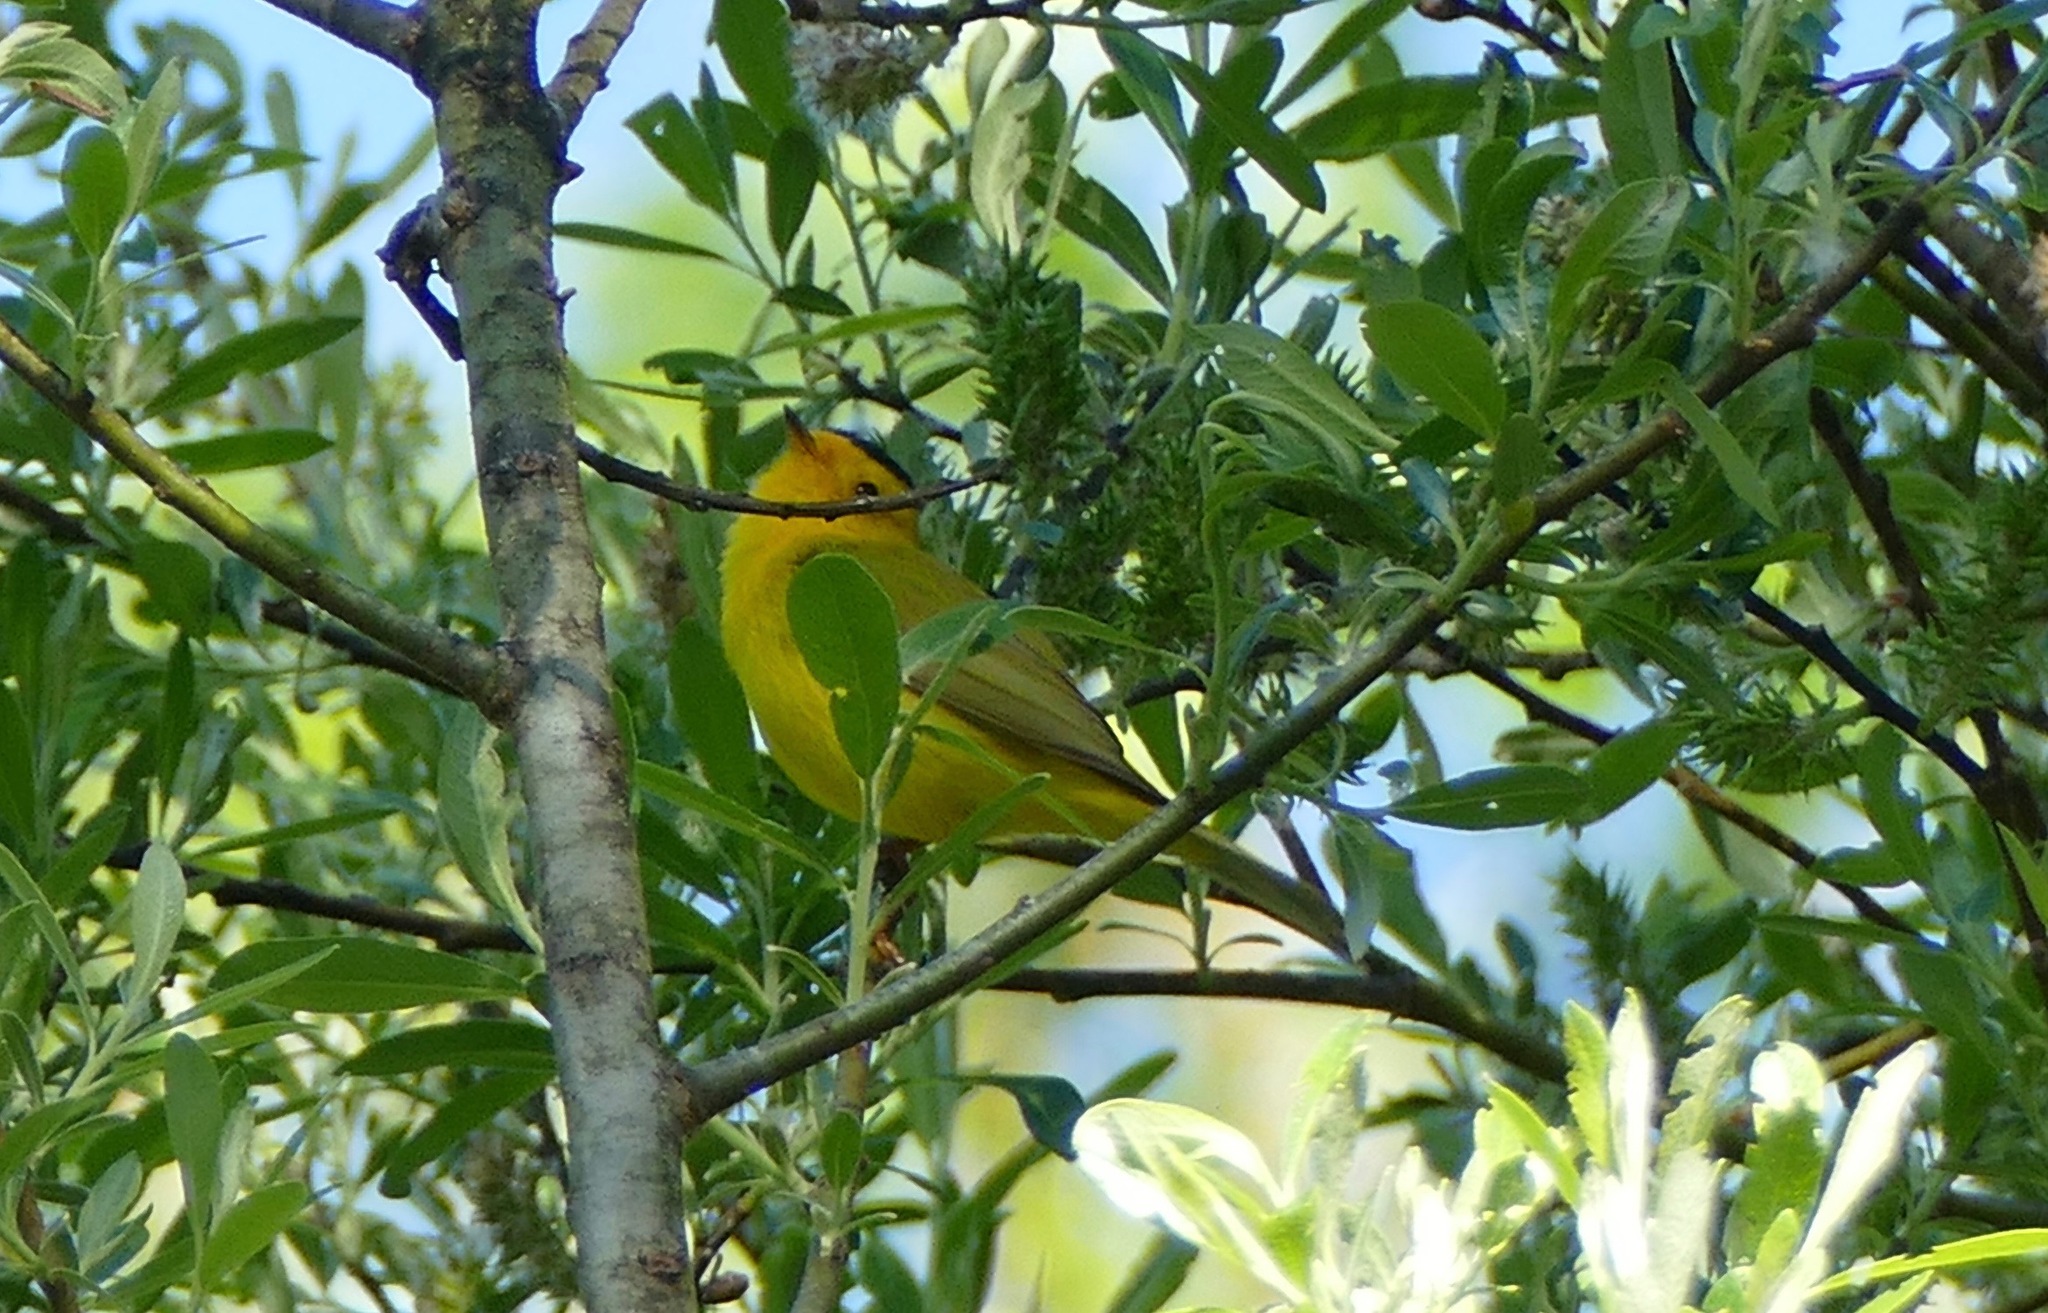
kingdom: Animalia
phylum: Chordata
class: Aves
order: Passeriformes
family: Parulidae
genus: Cardellina
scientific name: Cardellina pusilla
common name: Wilson's warbler
